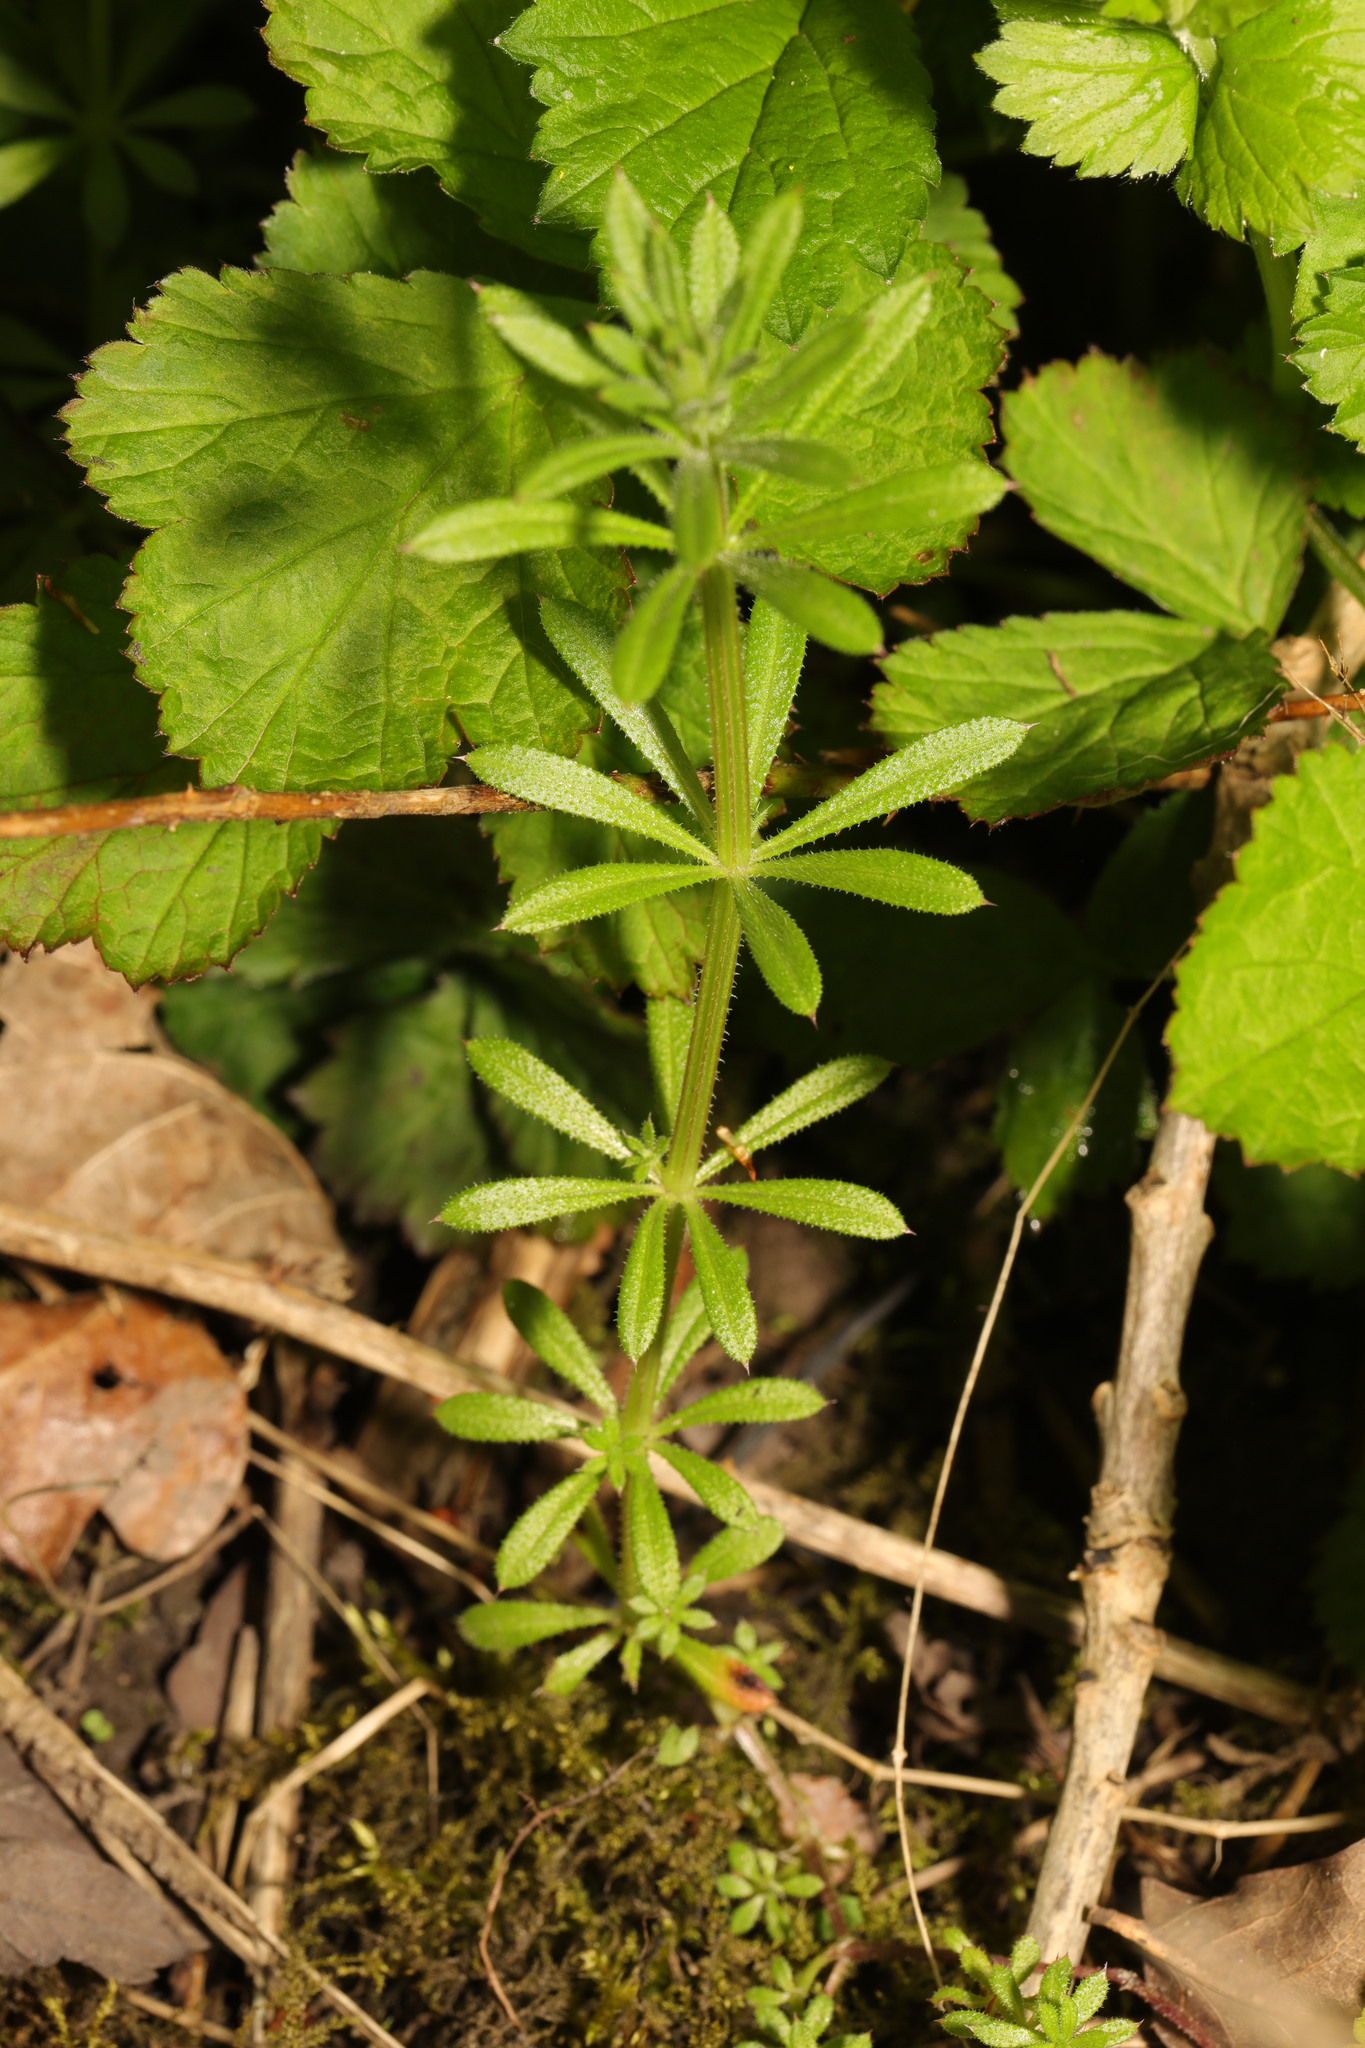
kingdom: Plantae
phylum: Tracheophyta
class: Magnoliopsida
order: Gentianales
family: Rubiaceae
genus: Galium
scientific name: Galium aparine
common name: Cleavers
